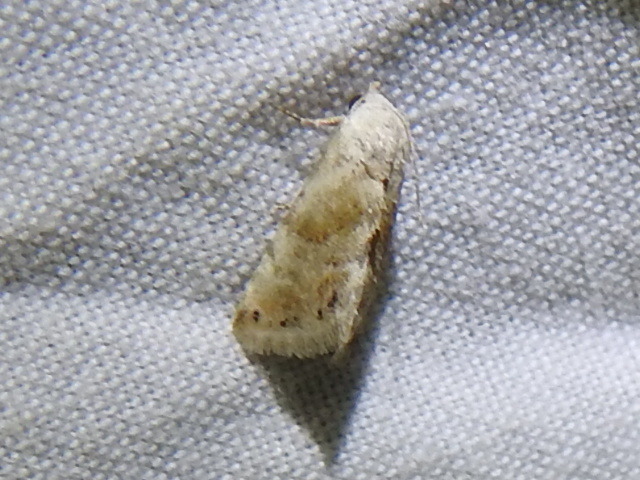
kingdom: Animalia
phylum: Arthropoda
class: Insecta
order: Lepidoptera
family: Noctuidae
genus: Eublemma
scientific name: Eublemma minima
